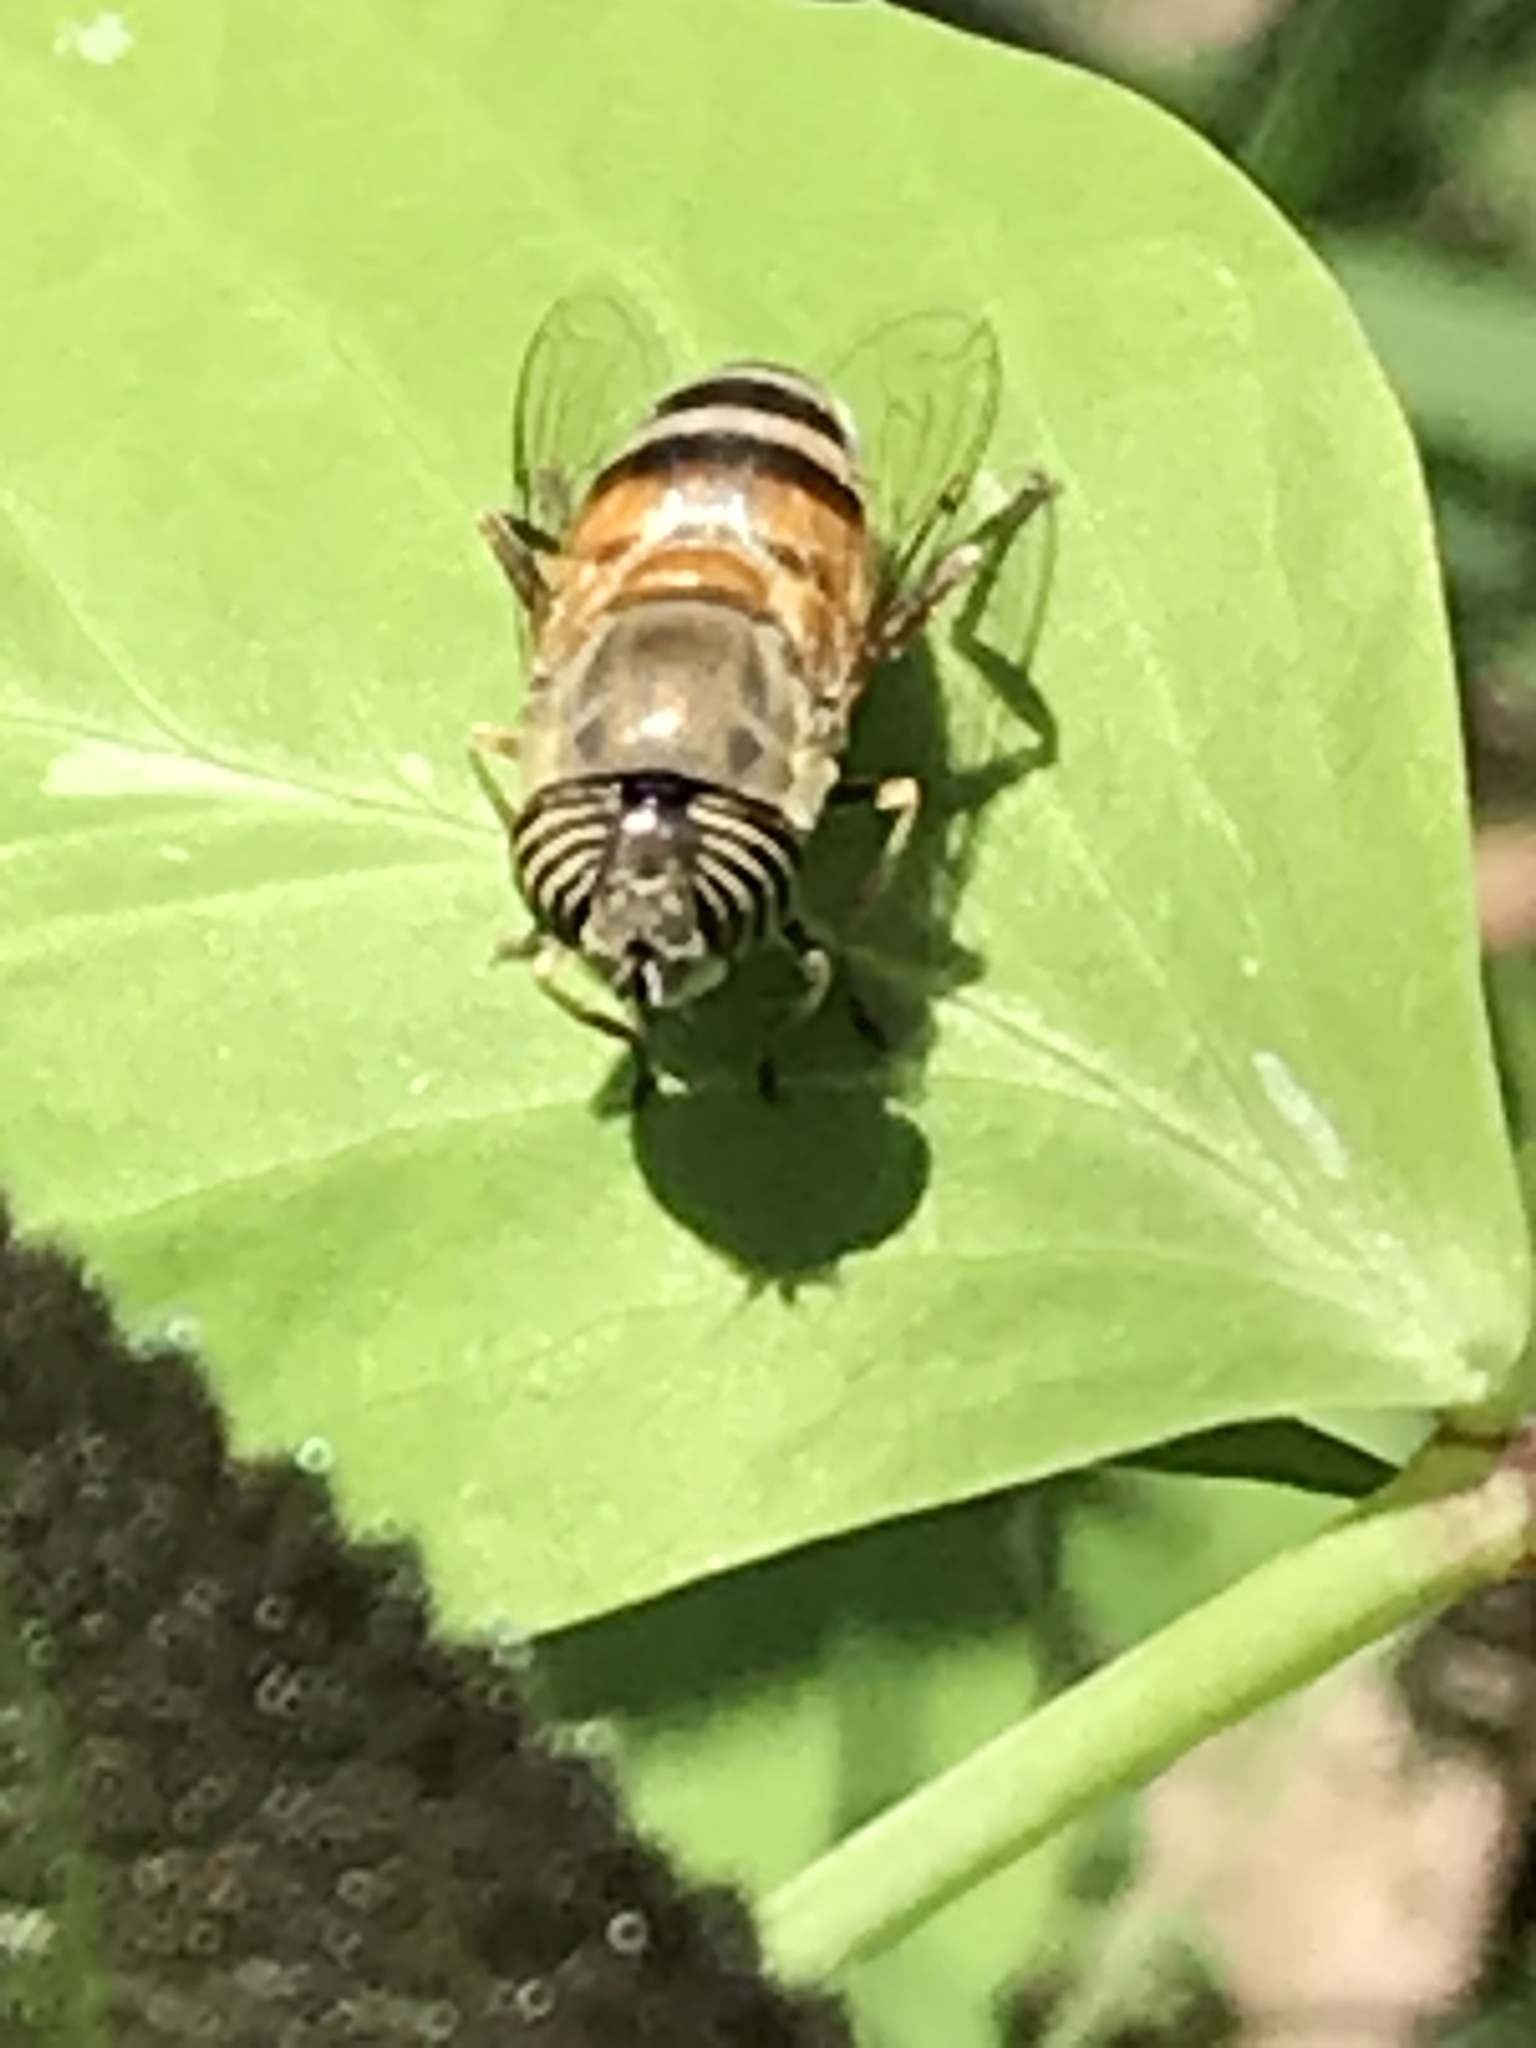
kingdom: Animalia
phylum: Arthropoda
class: Insecta
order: Diptera
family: Syrphidae
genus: Eristalinus
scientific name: Eristalinus taeniops
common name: Syrphid fly
